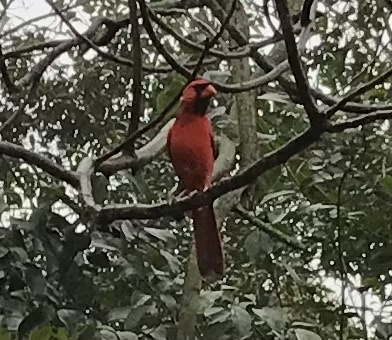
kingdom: Animalia
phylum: Chordata
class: Aves
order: Passeriformes
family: Cardinalidae
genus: Cardinalis
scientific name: Cardinalis cardinalis
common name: Northern cardinal
